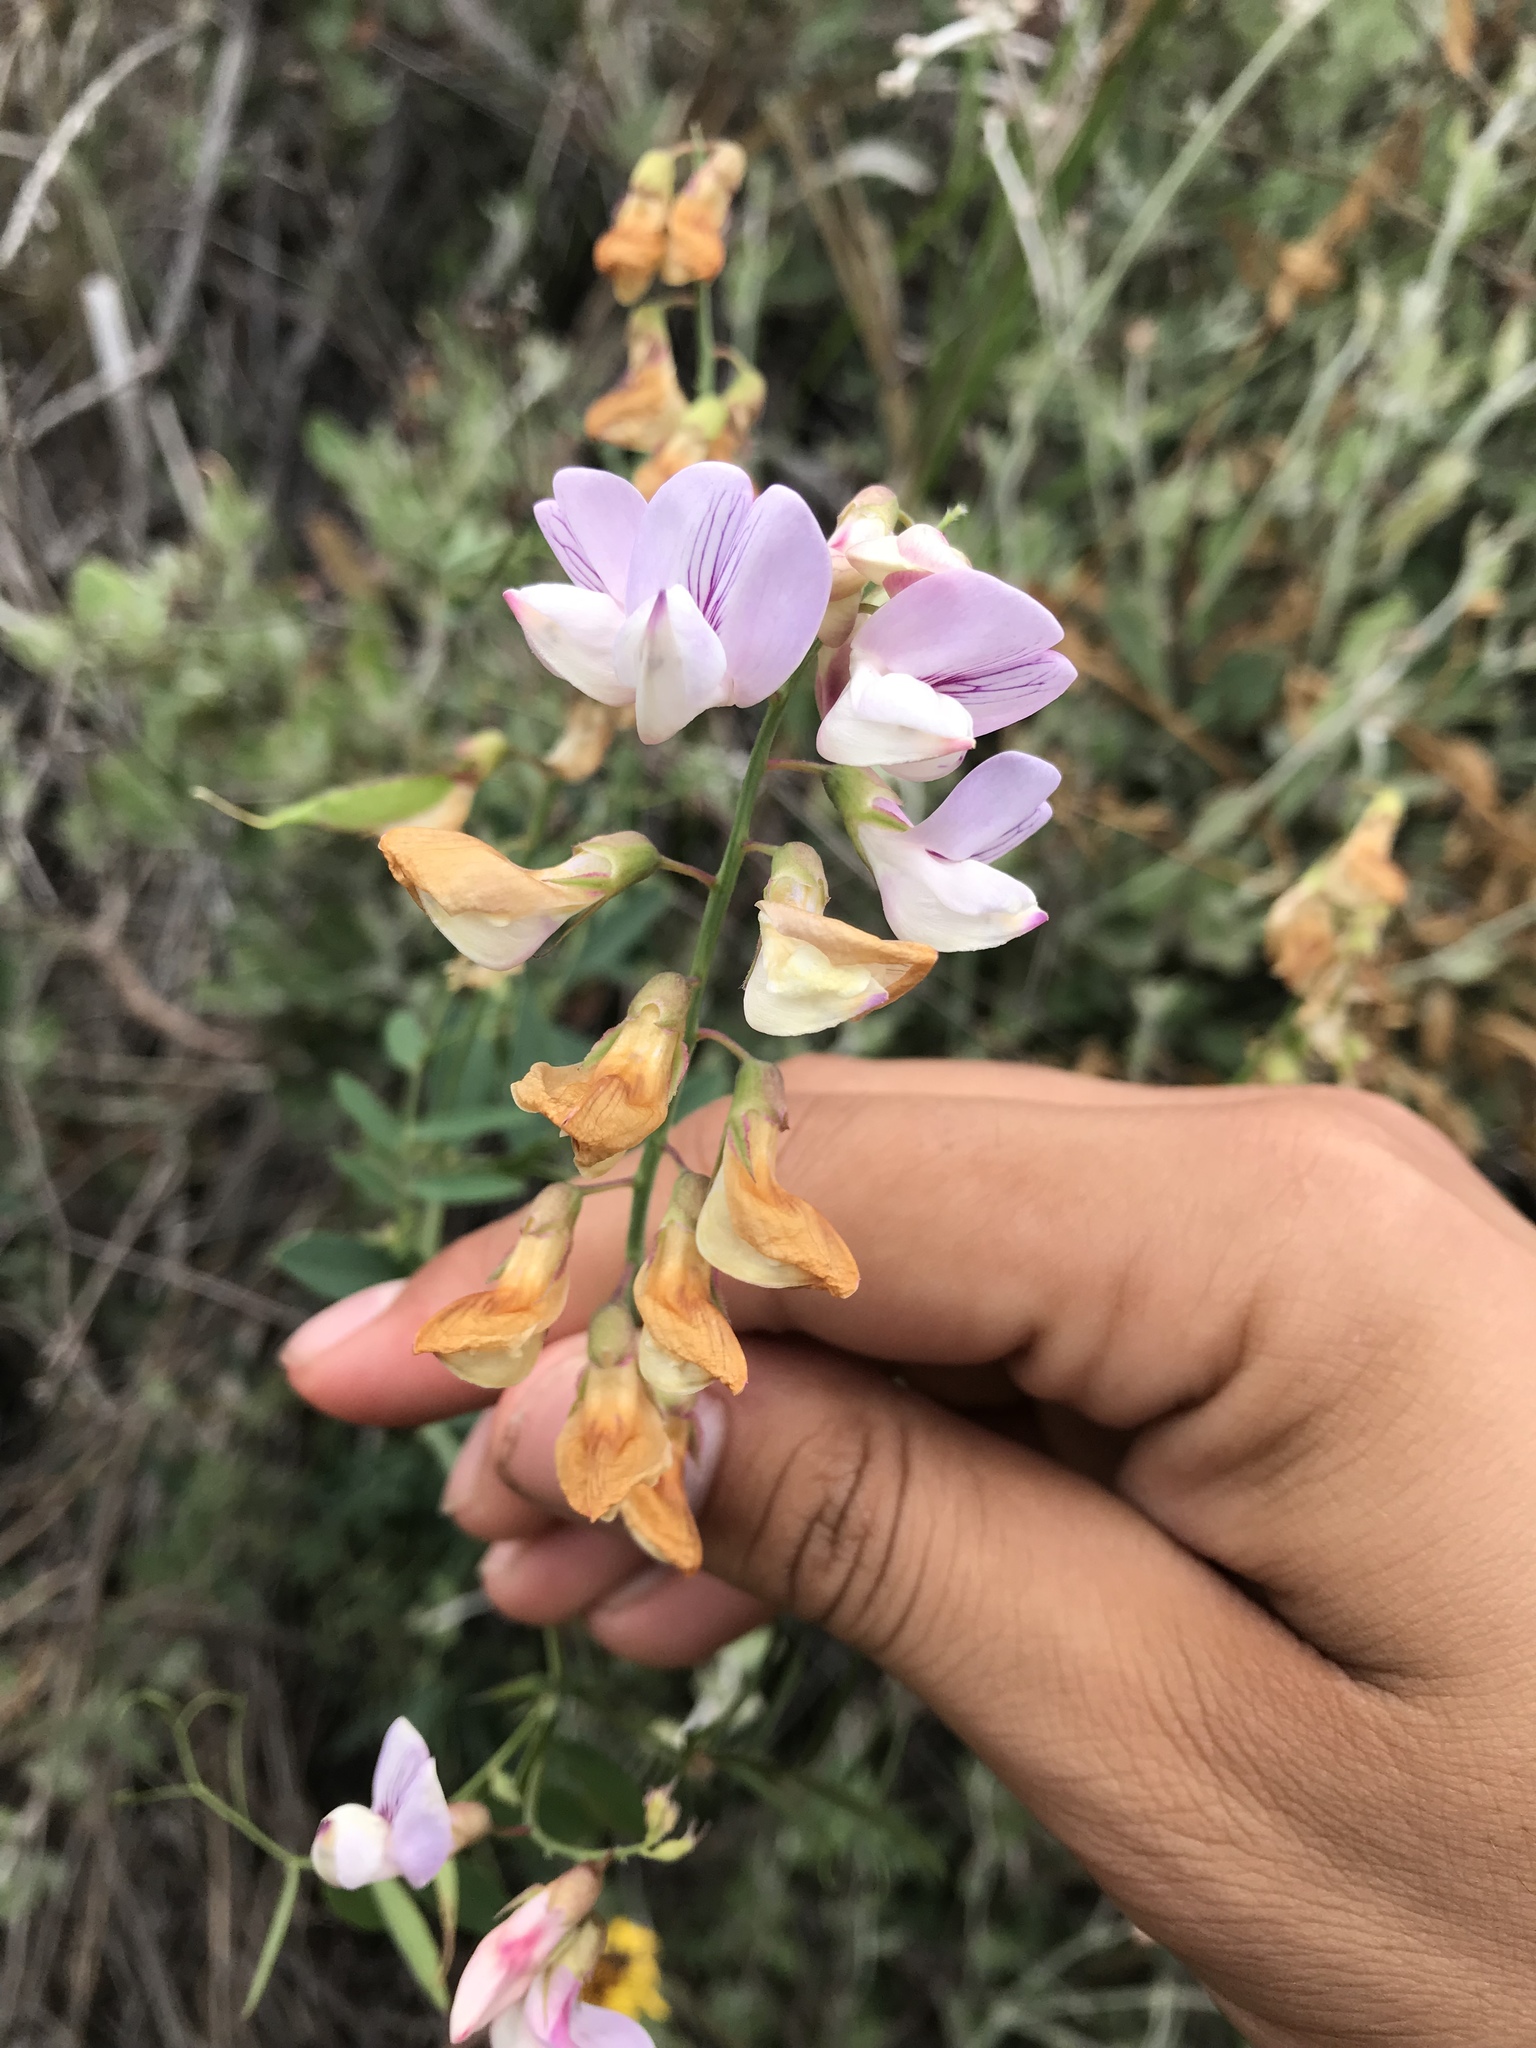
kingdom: Plantae
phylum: Tracheophyta
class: Magnoliopsida
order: Fabales
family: Fabaceae
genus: Lathyrus
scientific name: Lathyrus vestitus
